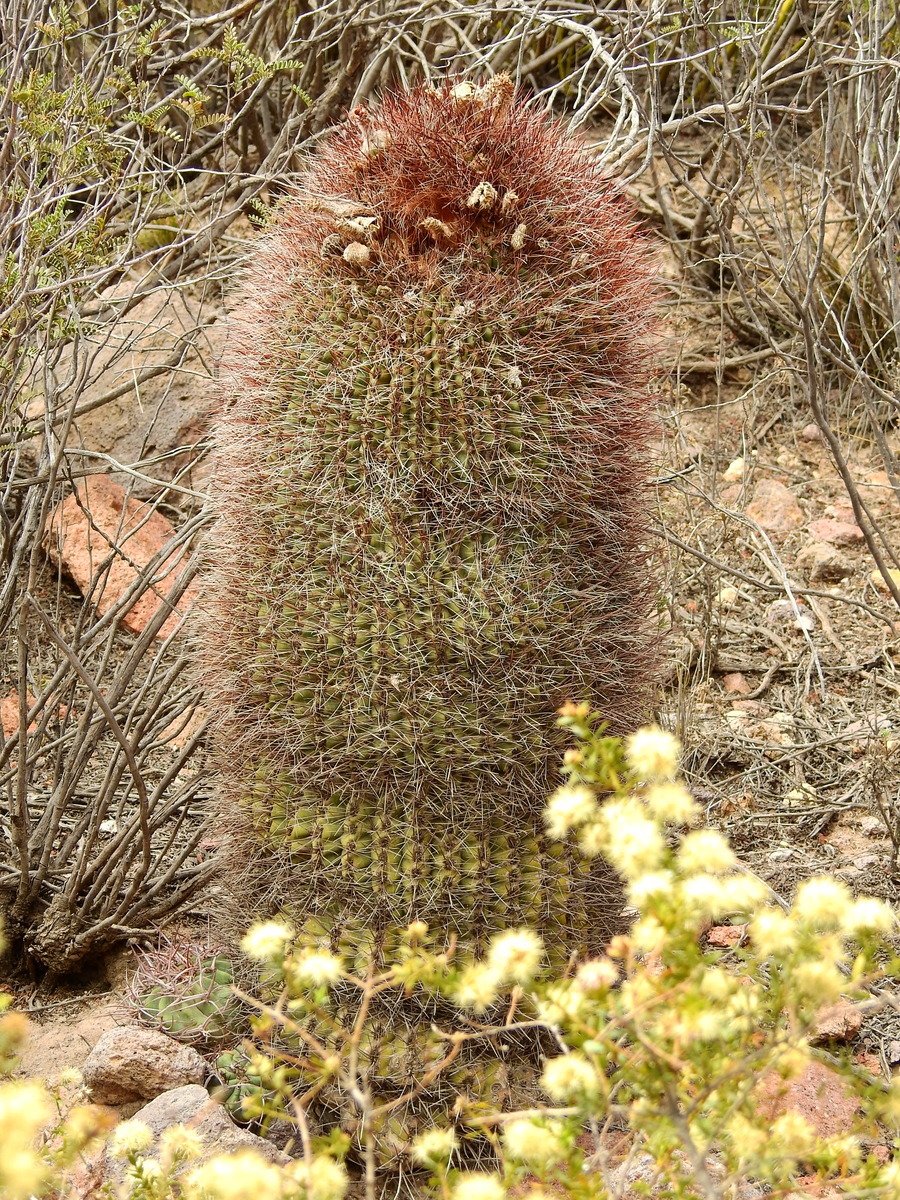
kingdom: Plantae
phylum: Tracheophyta
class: Magnoliopsida
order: Caryophyllales
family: Cactaceae
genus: Denmoza
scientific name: Denmoza rhodacantha
